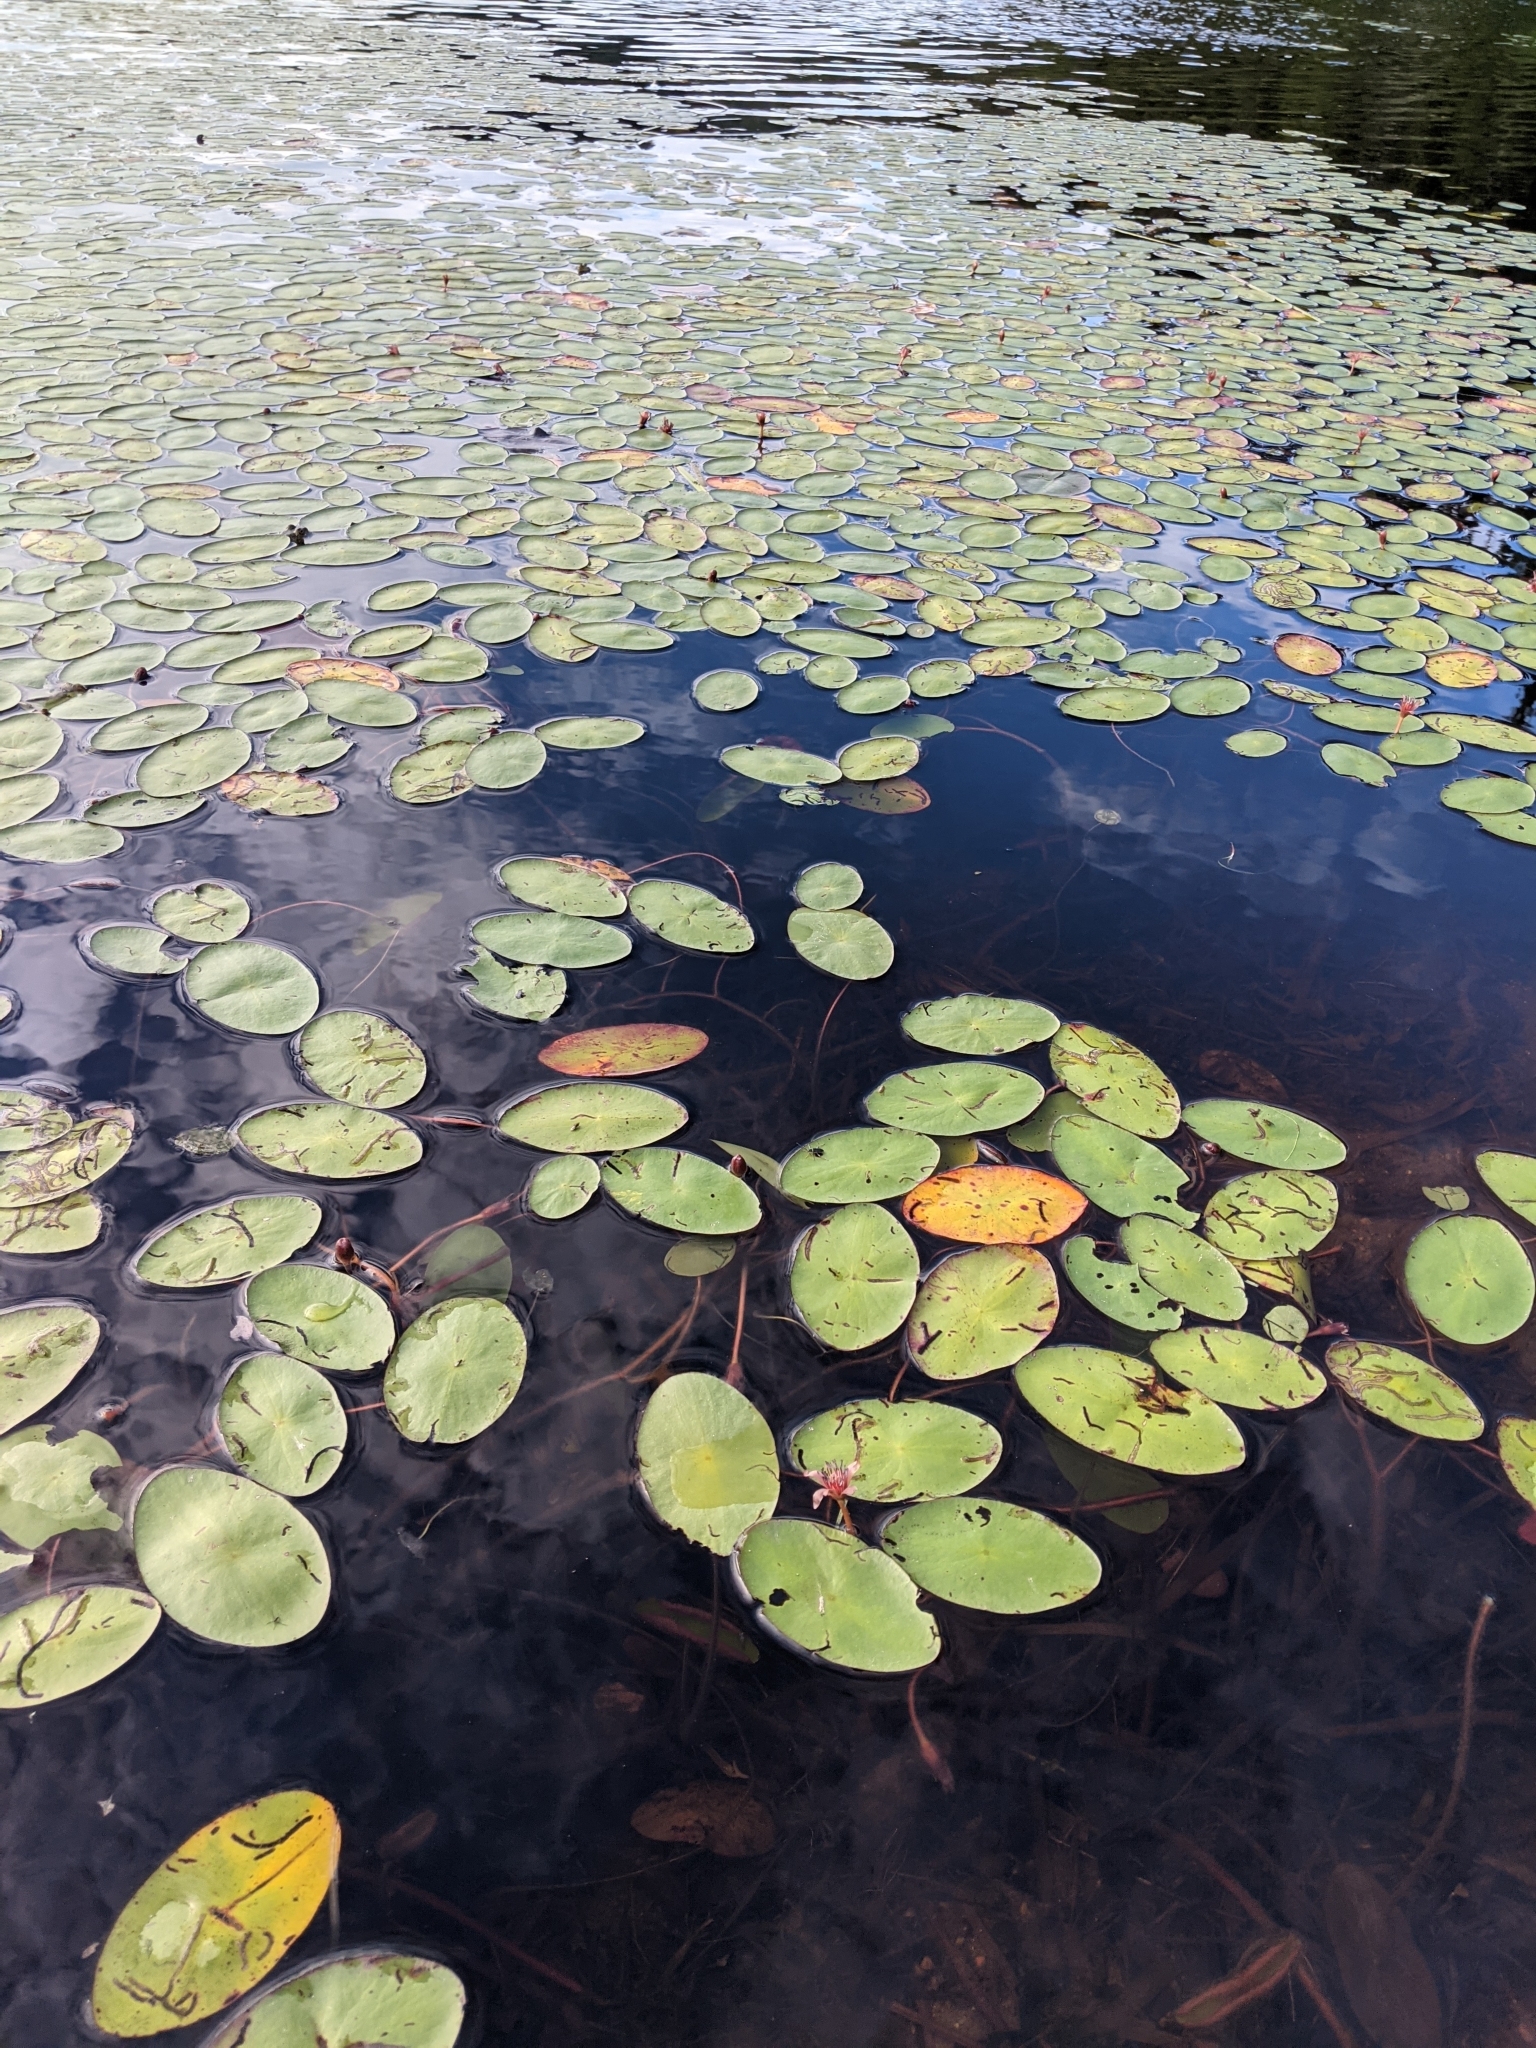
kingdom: Plantae
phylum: Tracheophyta
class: Magnoliopsida
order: Nymphaeales
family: Cabombaceae
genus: Brasenia
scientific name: Brasenia schreberi
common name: Water-shield
